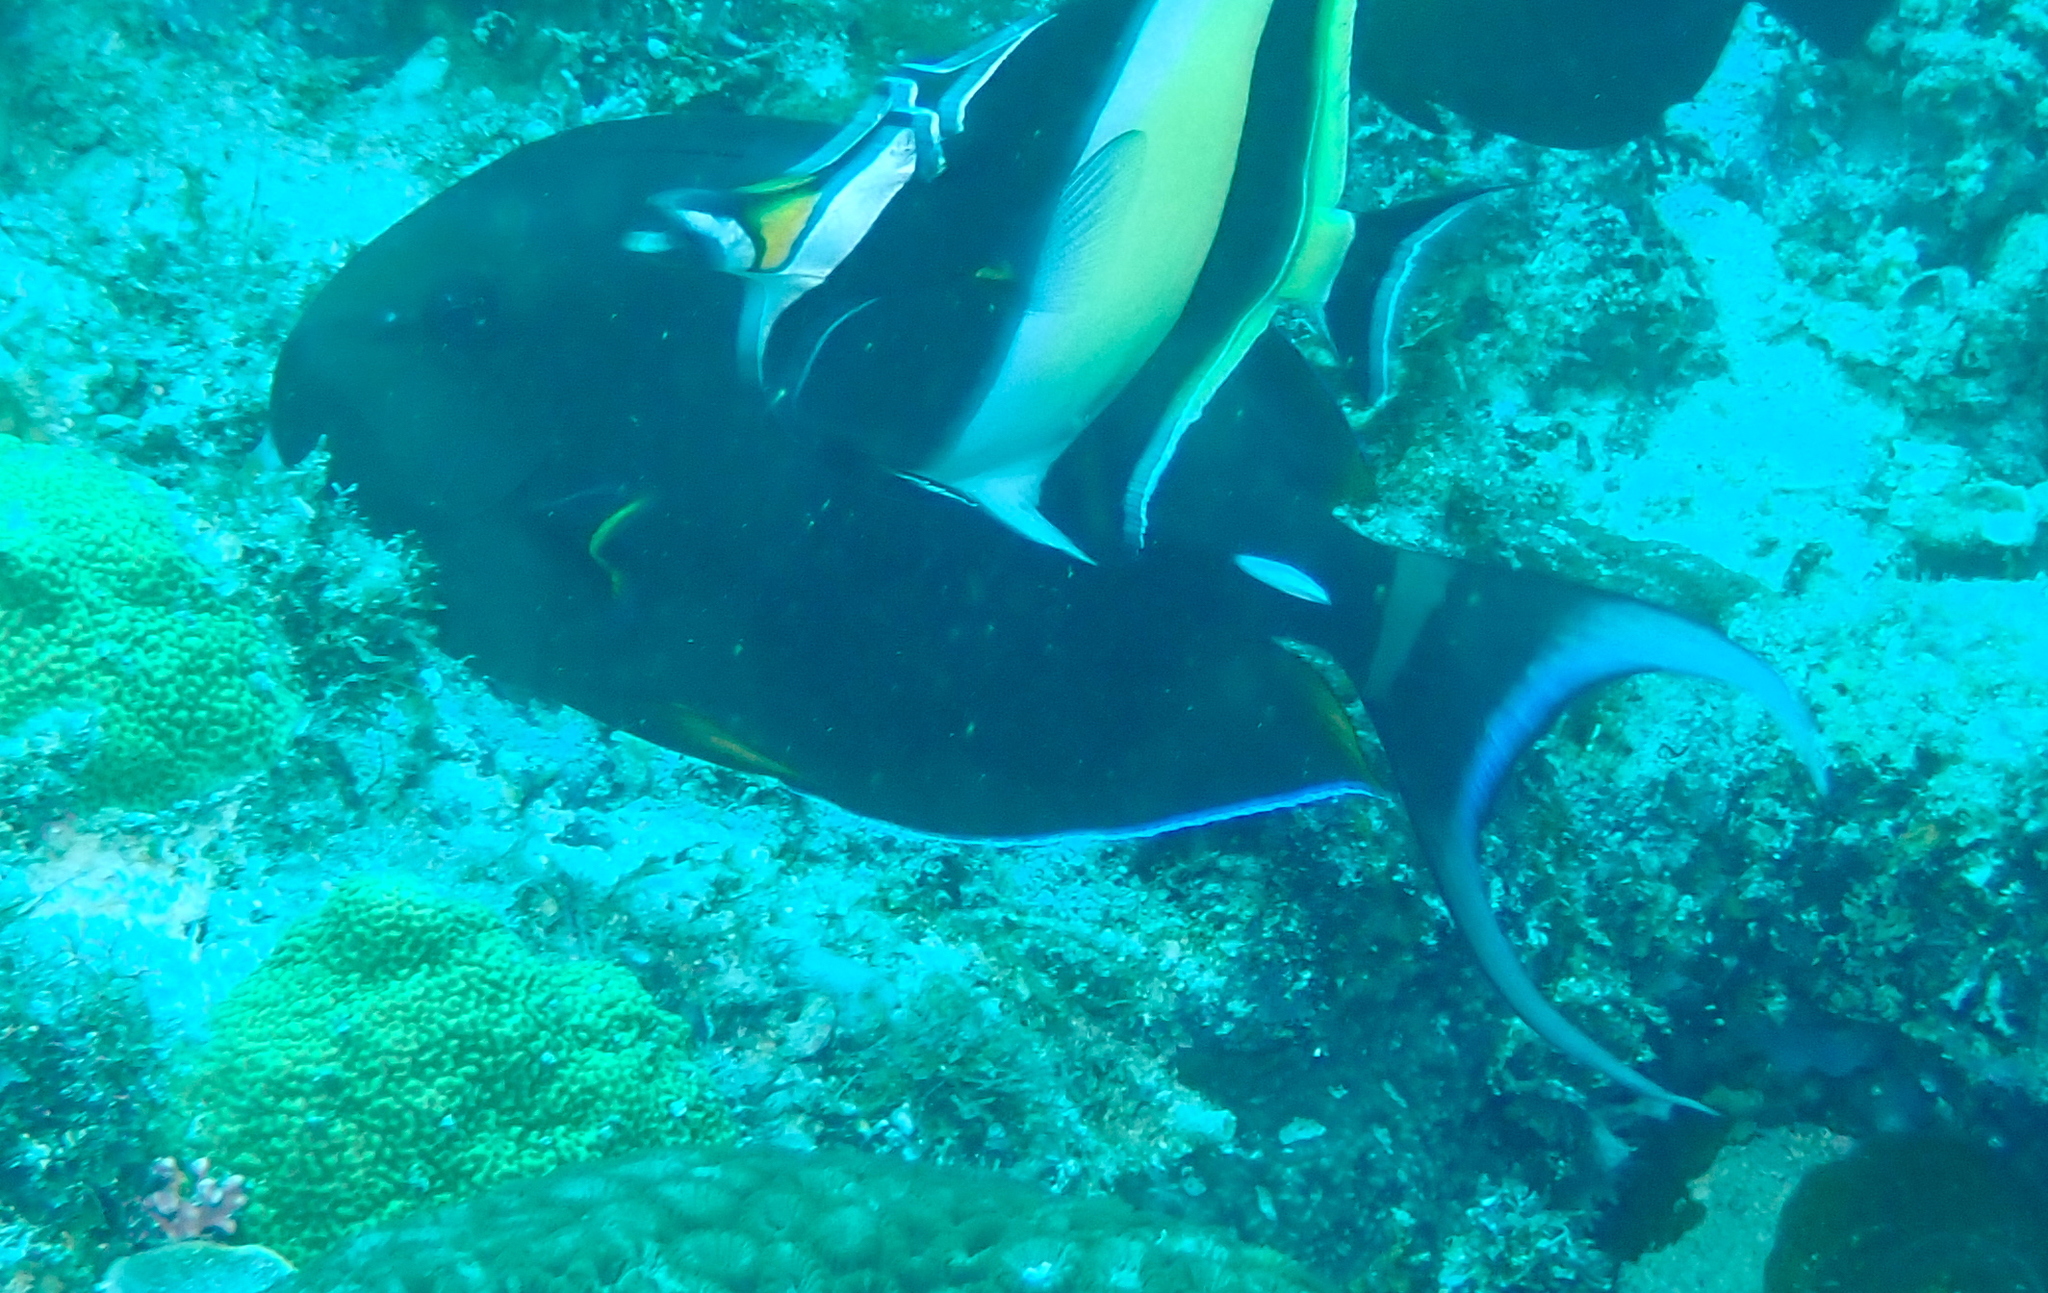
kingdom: Animalia
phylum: Chordata
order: Perciformes
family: Acanthuridae
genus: Acanthurus
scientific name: Acanthurus leucocheilus
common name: Palelipped surgeonfish
